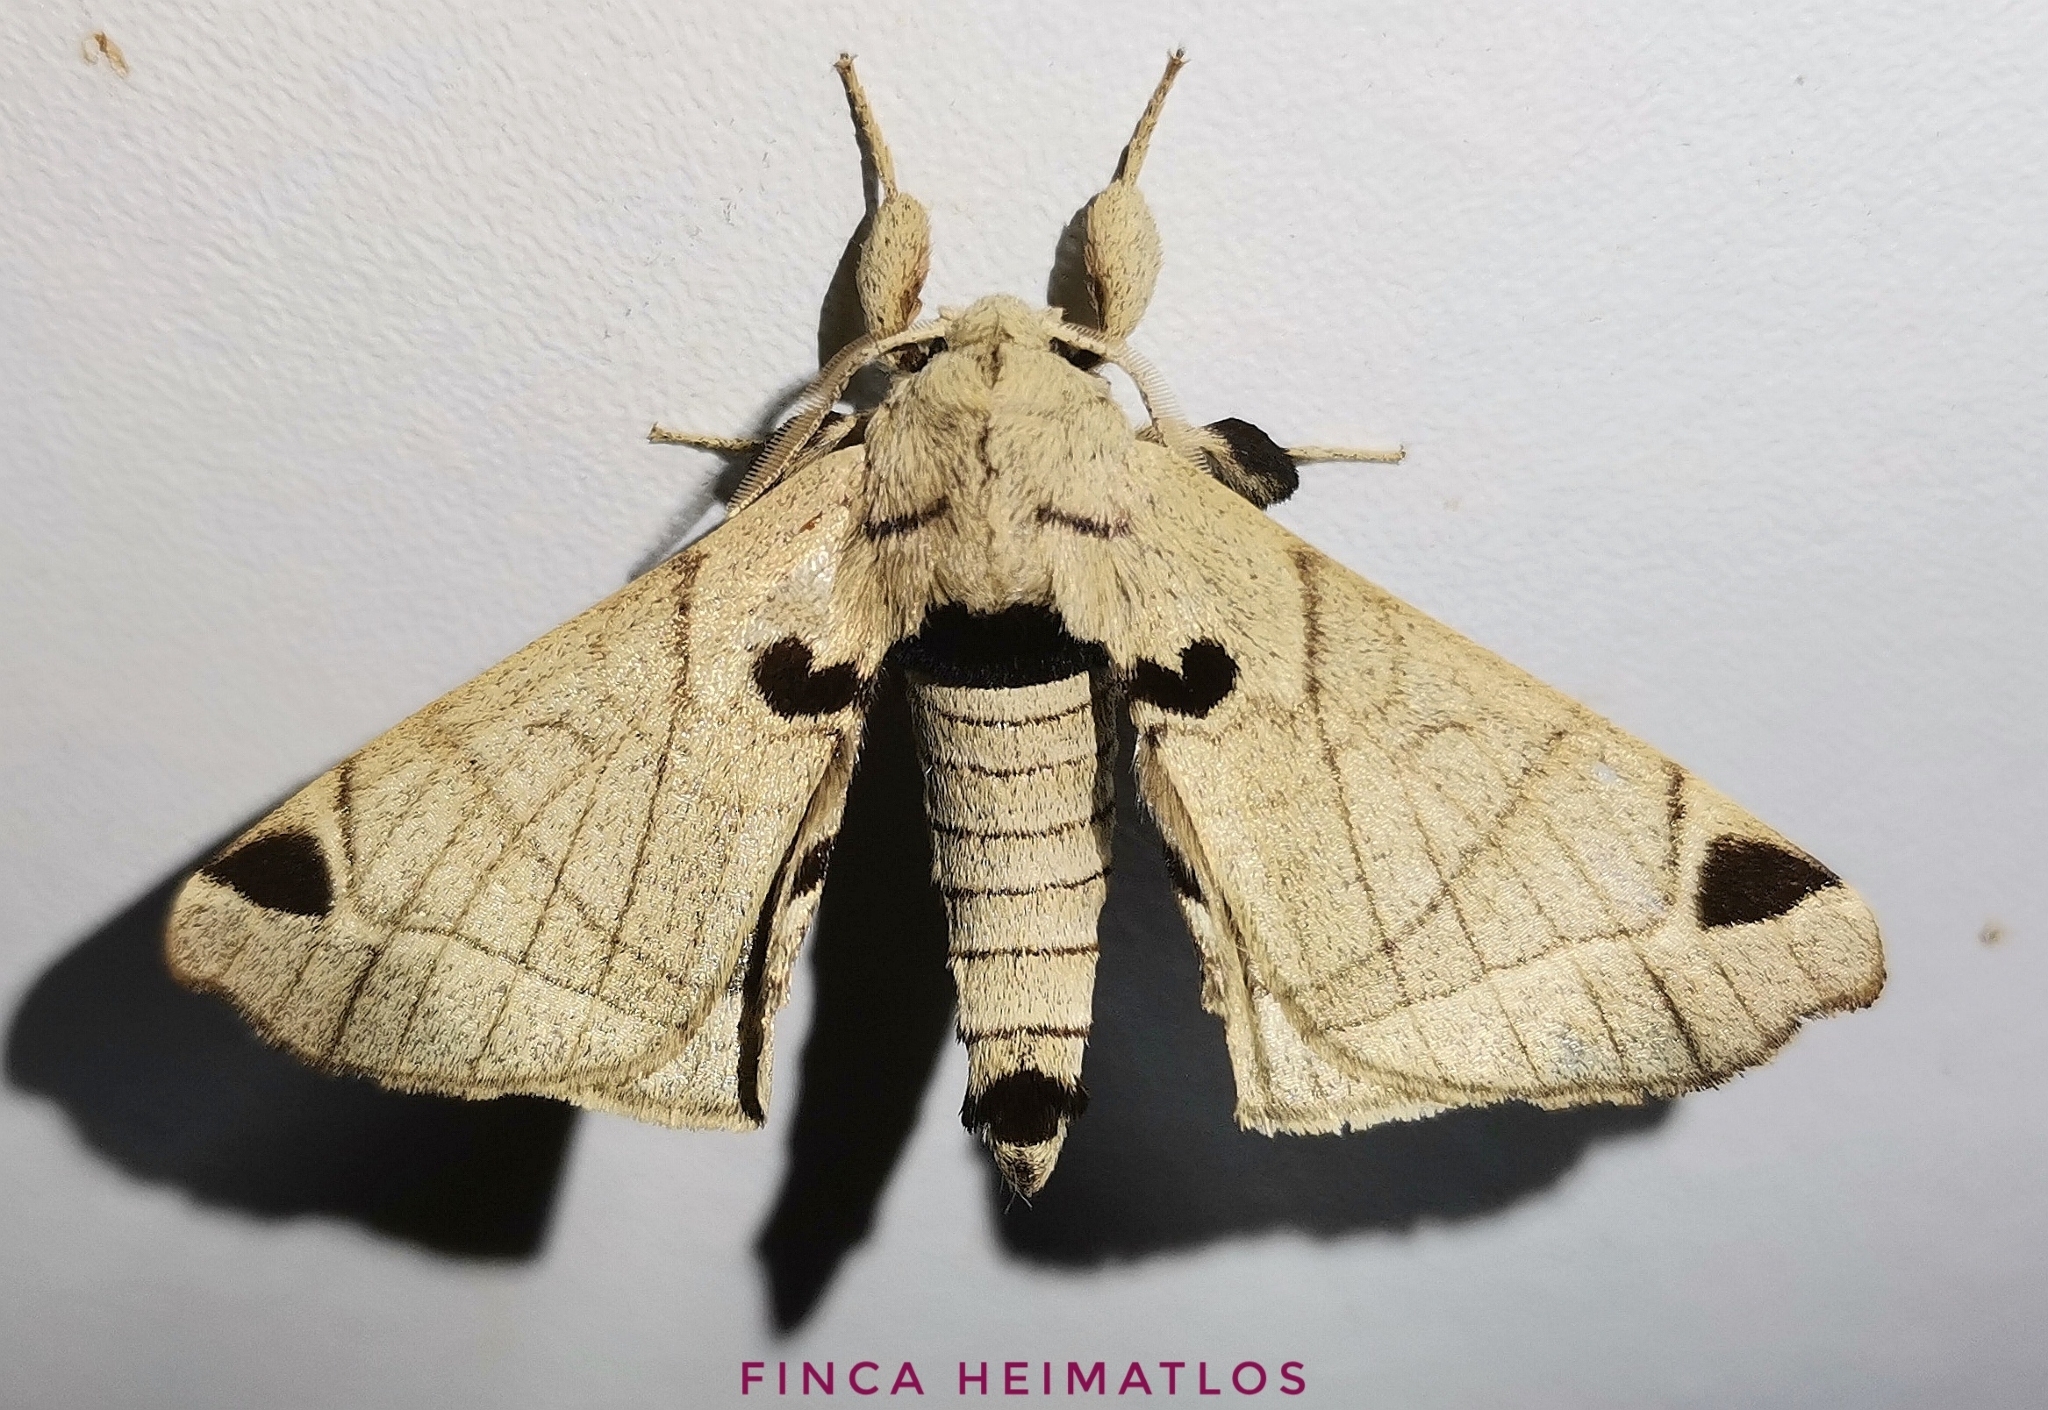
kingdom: Animalia
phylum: Arthropoda
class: Insecta
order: Lepidoptera
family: Apatelodidae
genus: Hygrochroa
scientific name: Hygrochroa Apatelodes pandara
